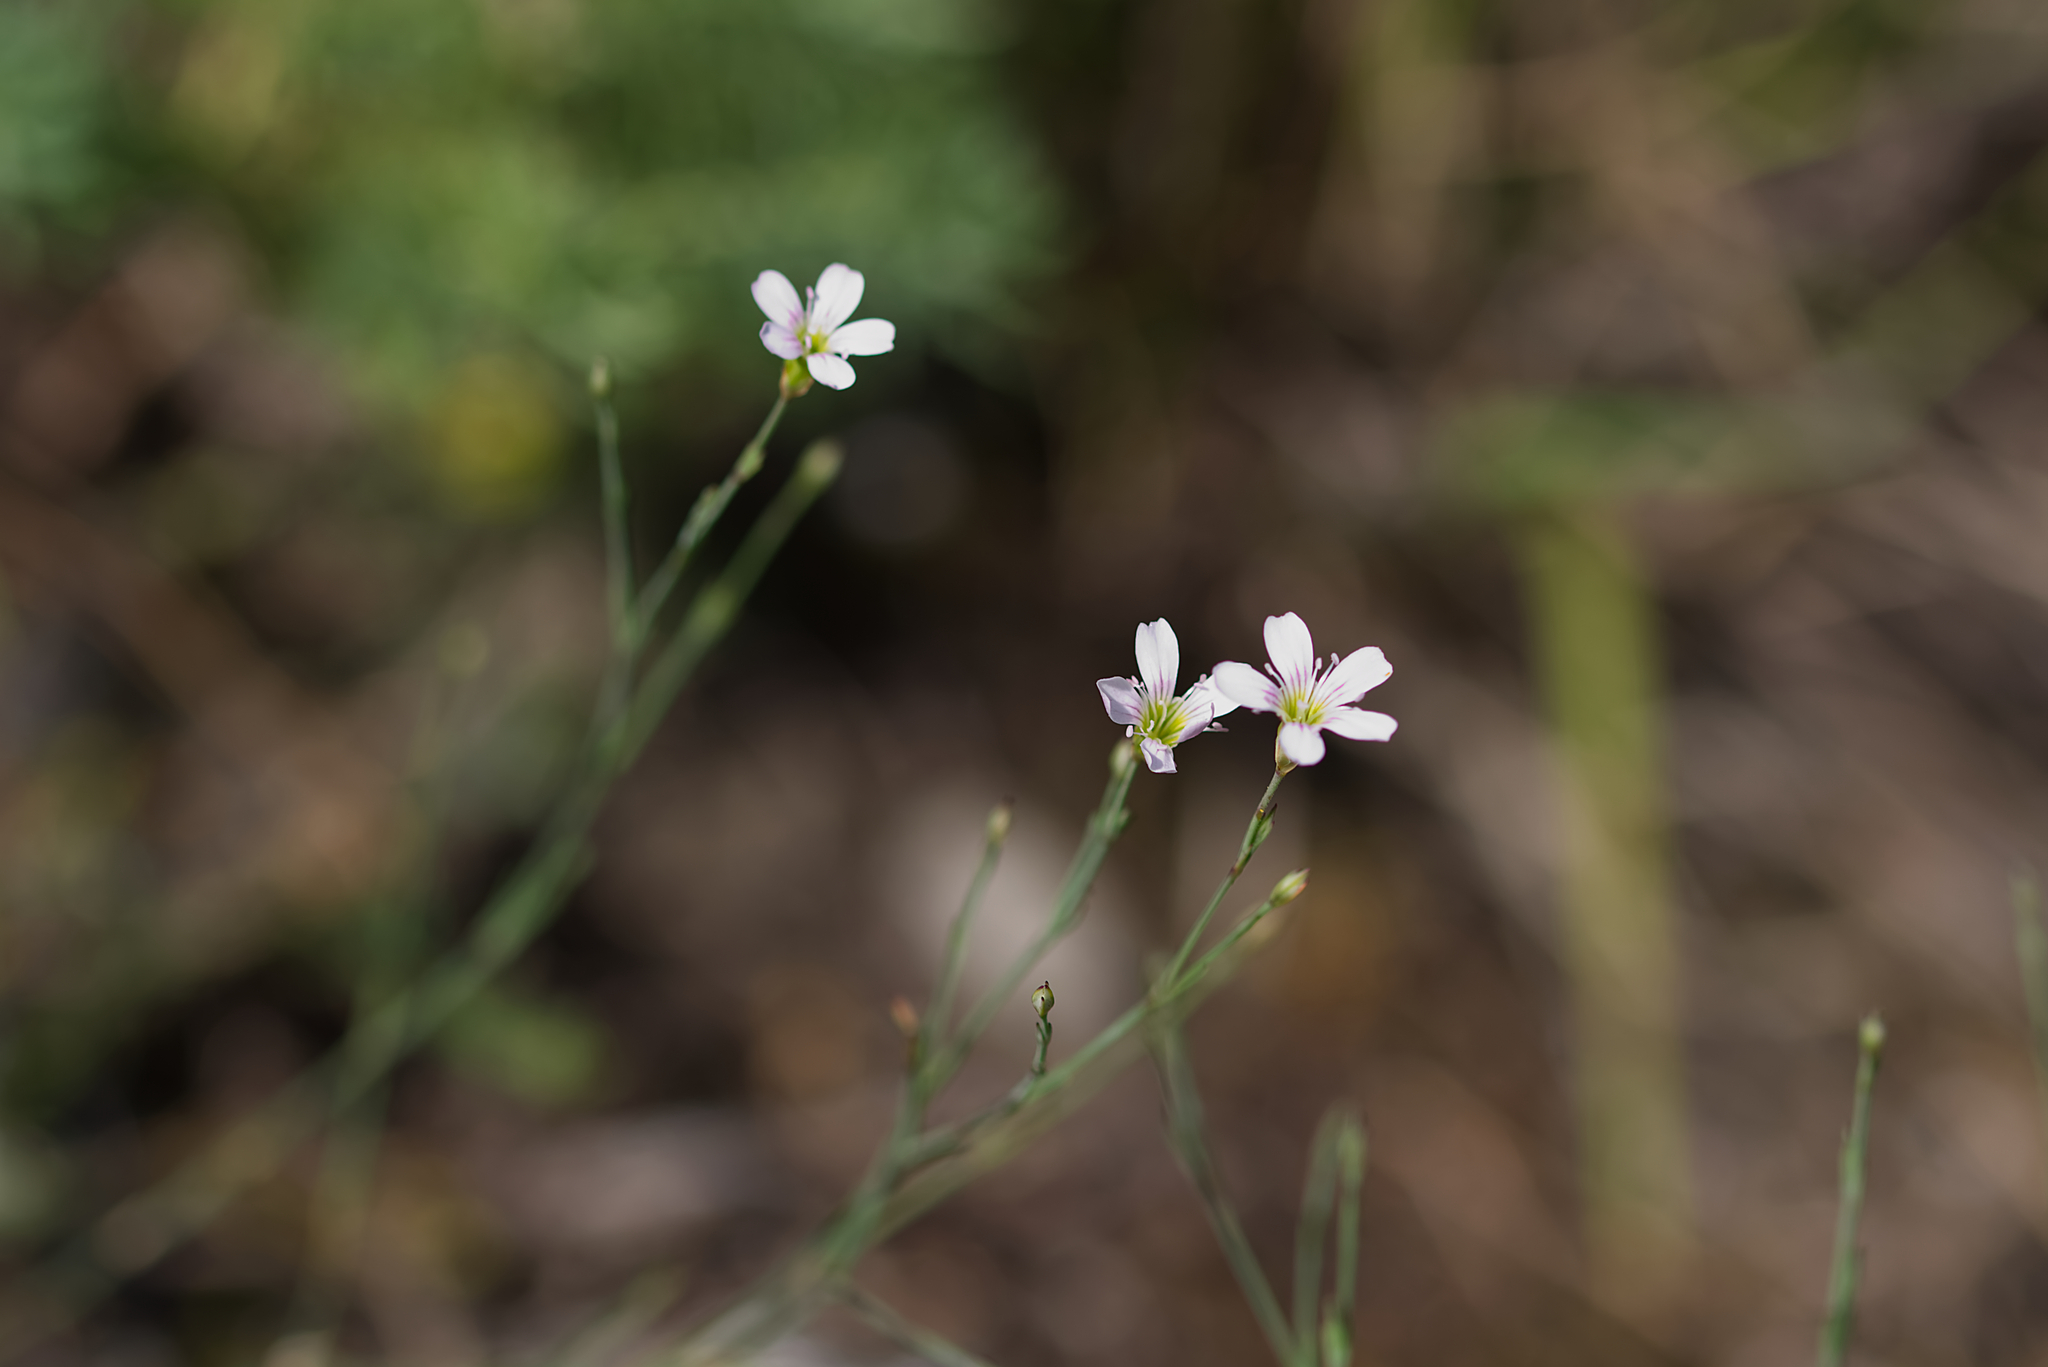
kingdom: Plantae
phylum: Tracheophyta
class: Magnoliopsida
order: Caryophyllales
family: Caryophyllaceae
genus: Petrorhagia
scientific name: Petrorhagia saxifraga
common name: Tunicflower
